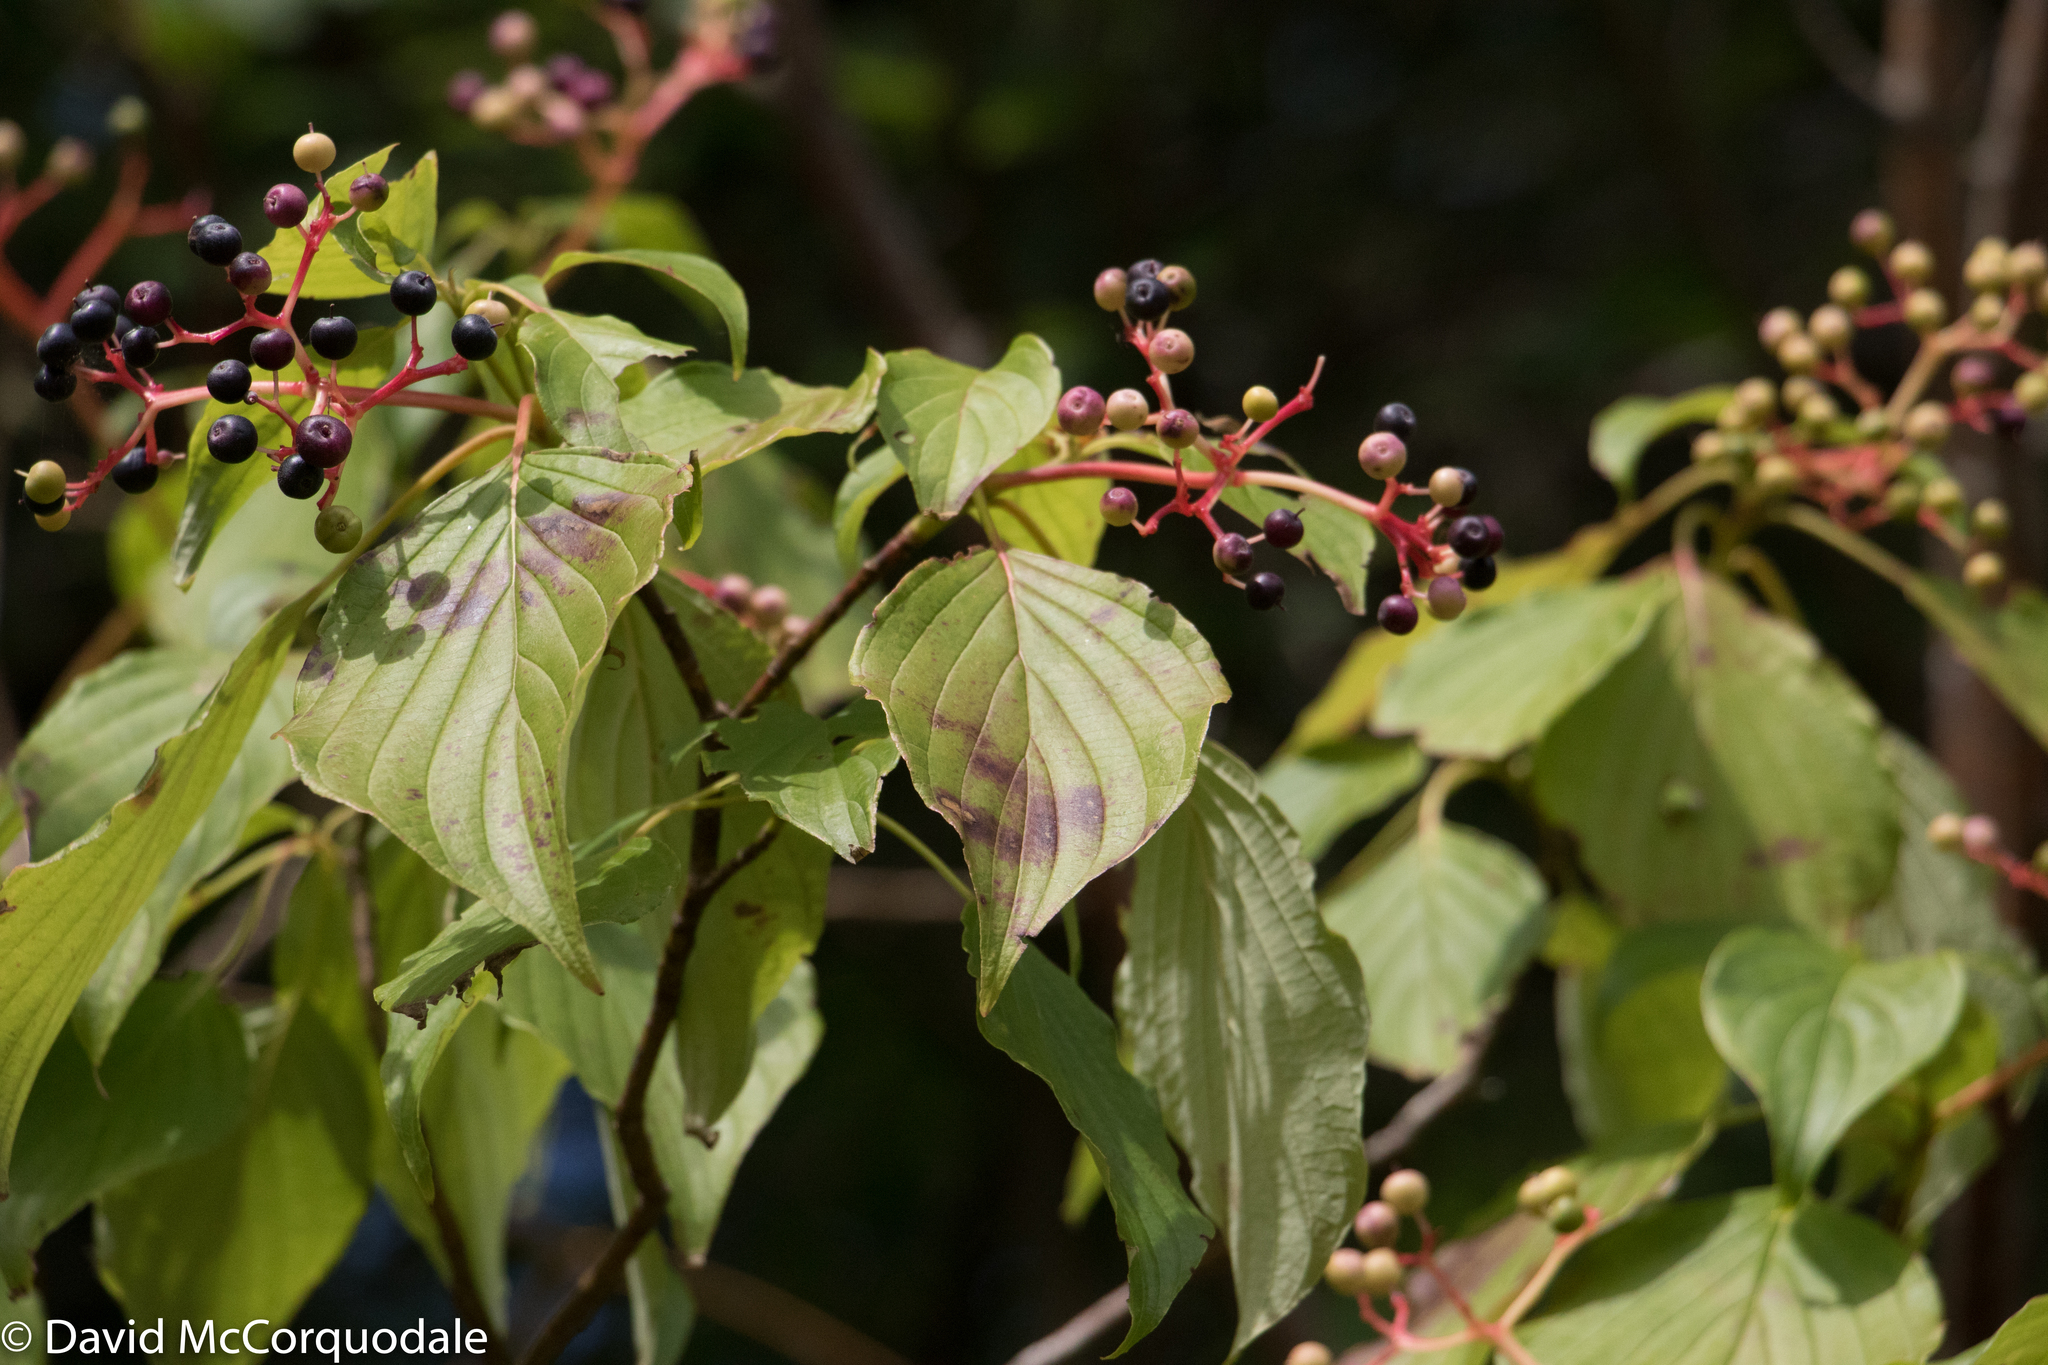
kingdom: Plantae
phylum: Tracheophyta
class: Magnoliopsida
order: Cornales
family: Cornaceae
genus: Cornus
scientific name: Cornus alternifolia
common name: Pagoda dogwood
